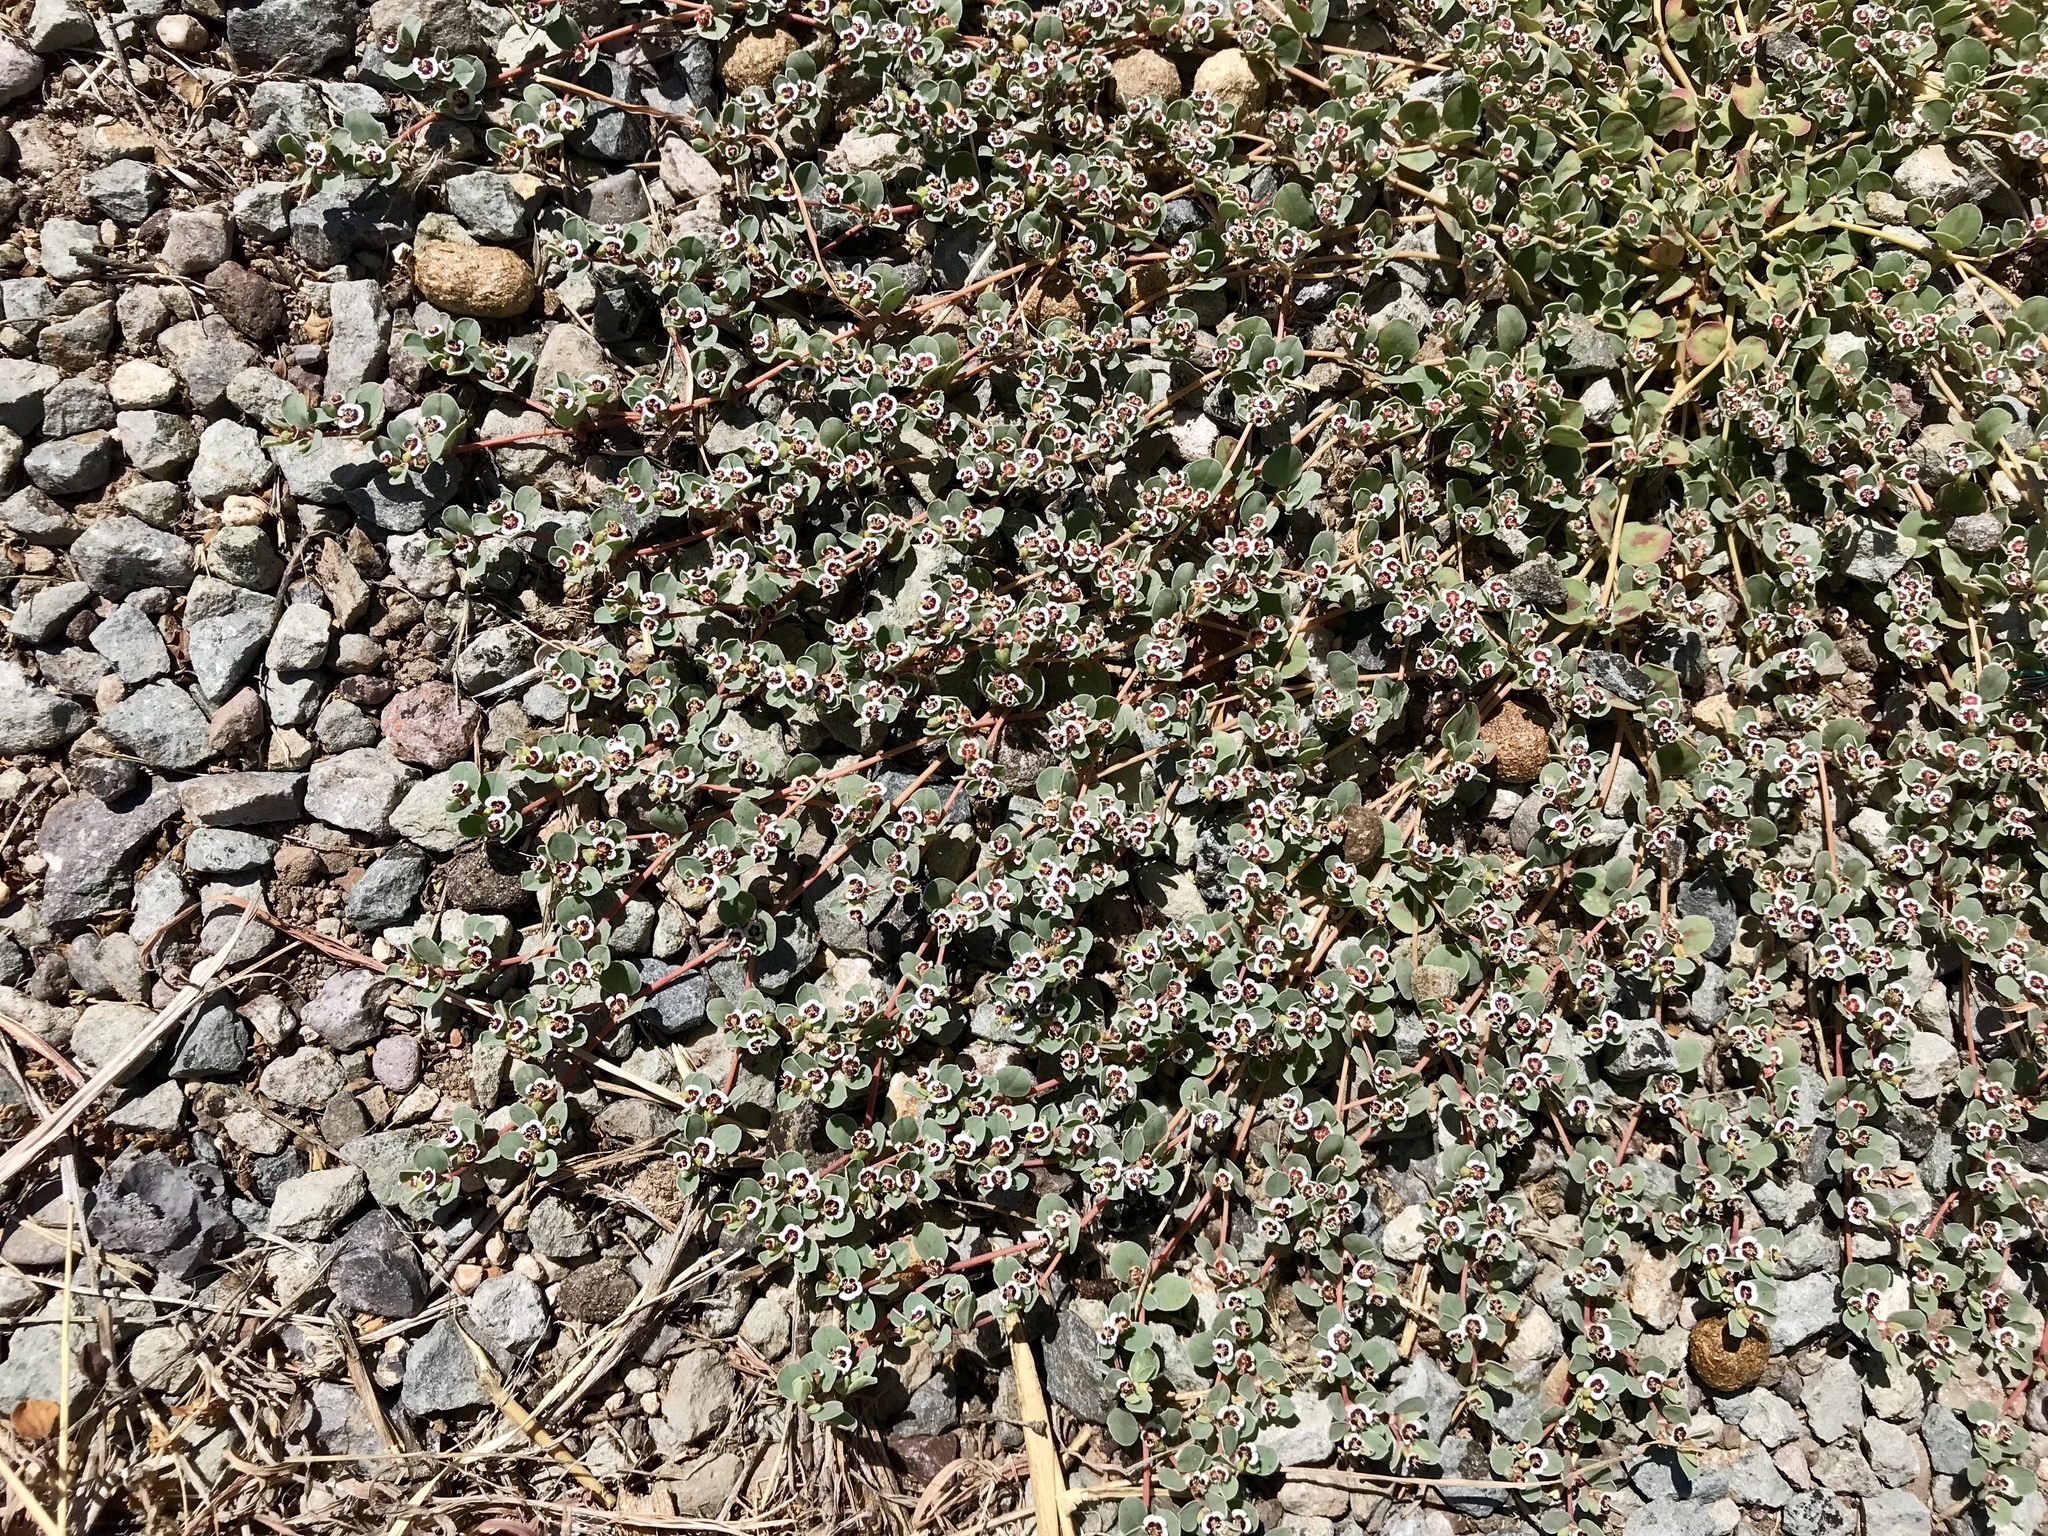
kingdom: Plantae
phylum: Tracheophyta
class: Magnoliopsida
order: Malpighiales
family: Euphorbiaceae
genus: Euphorbia
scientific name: Euphorbia albomarginata
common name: Whitemargin sandmat
